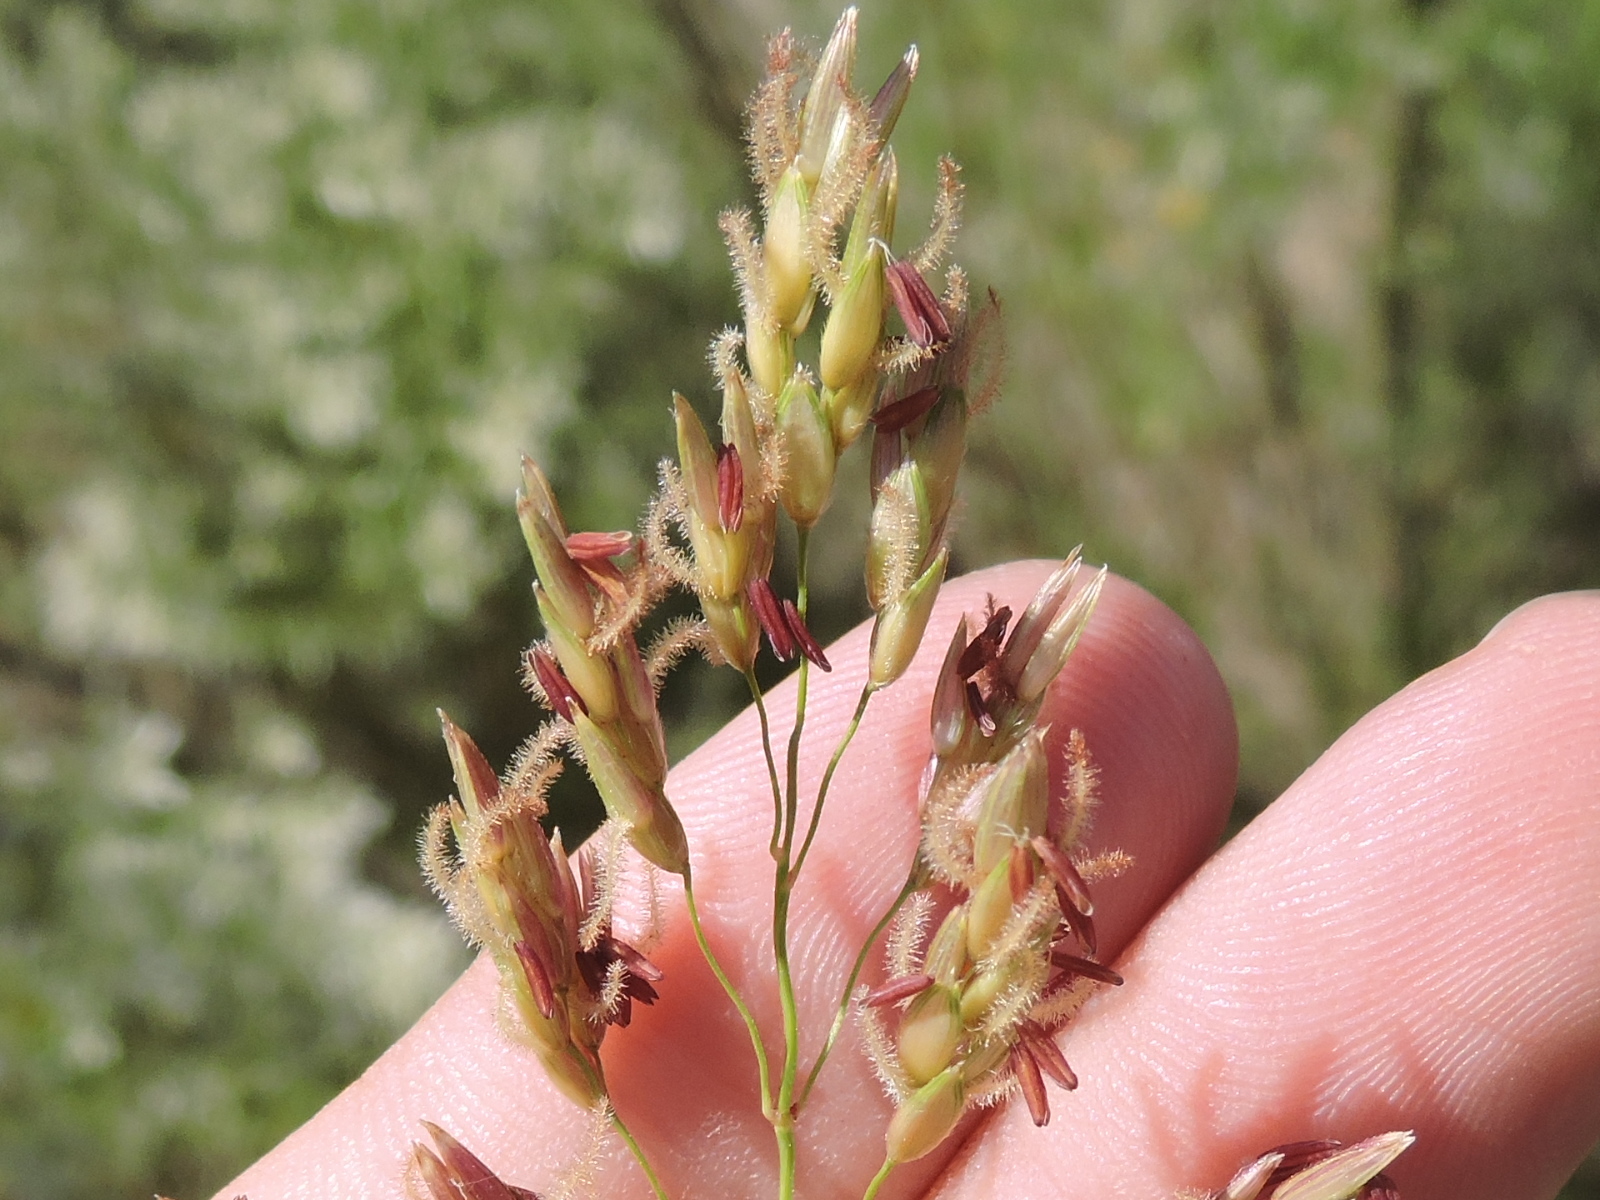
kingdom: Plantae
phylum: Tracheophyta
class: Liliopsida
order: Poales
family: Poaceae
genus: Sorghum
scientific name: Sorghum halepense
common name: Johnson-grass
